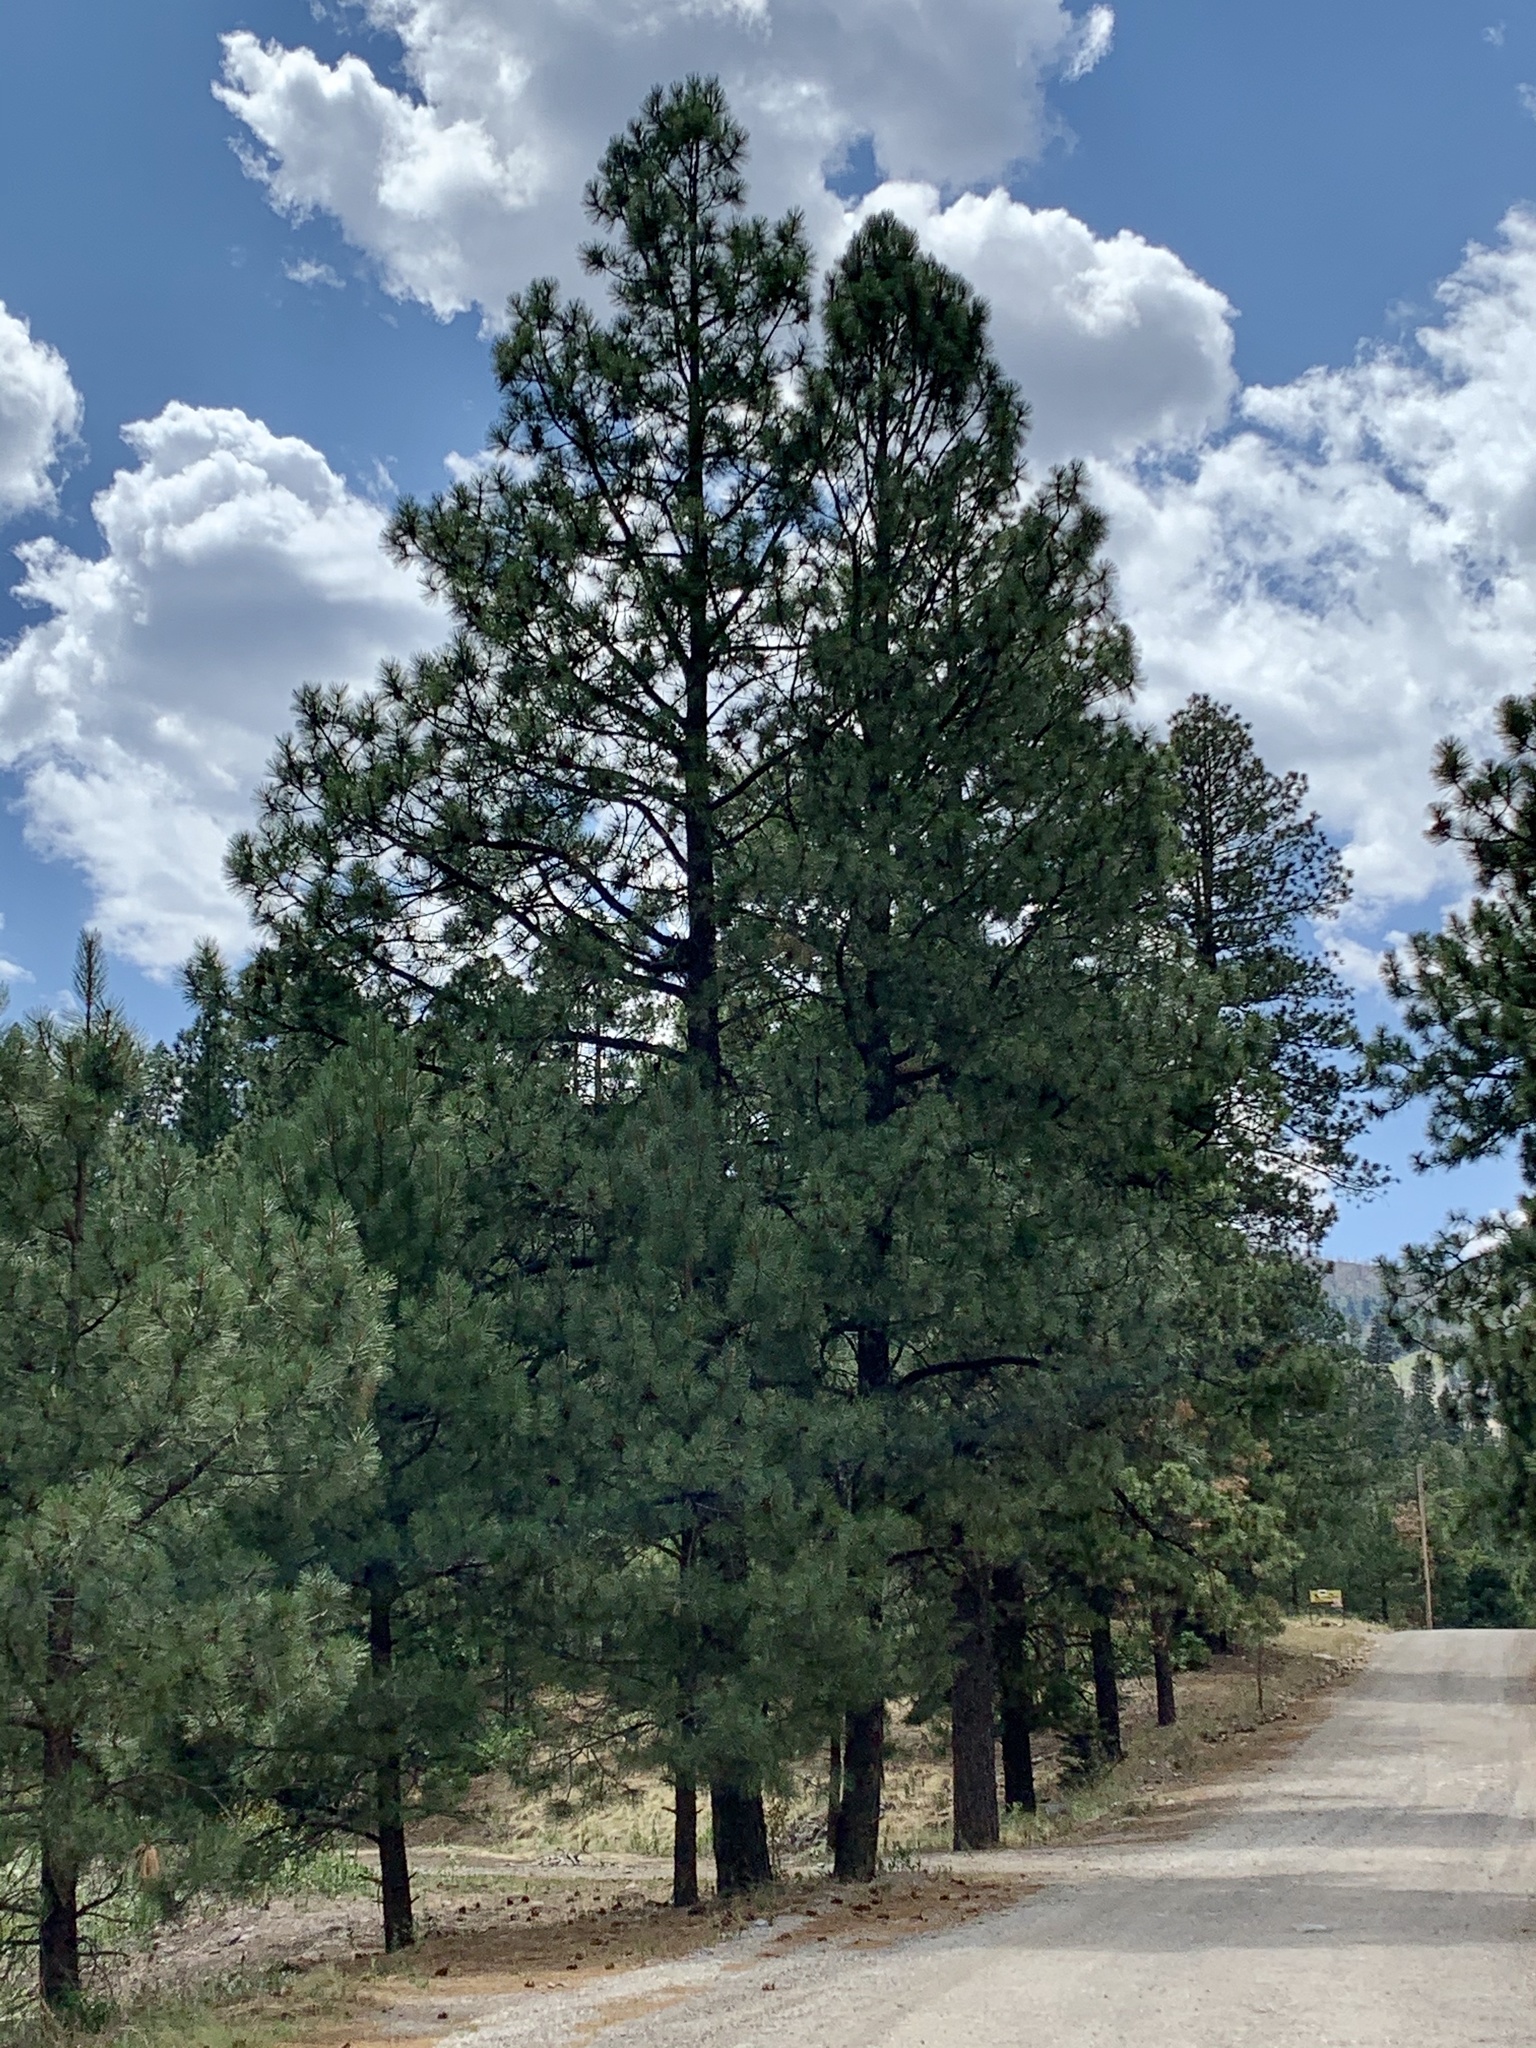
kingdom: Plantae
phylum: Tracheophyta
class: Pinopsida
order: Pinales
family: Pinaceae
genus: Pinus
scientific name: Pinus ponderosa
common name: Western yellow-pine
